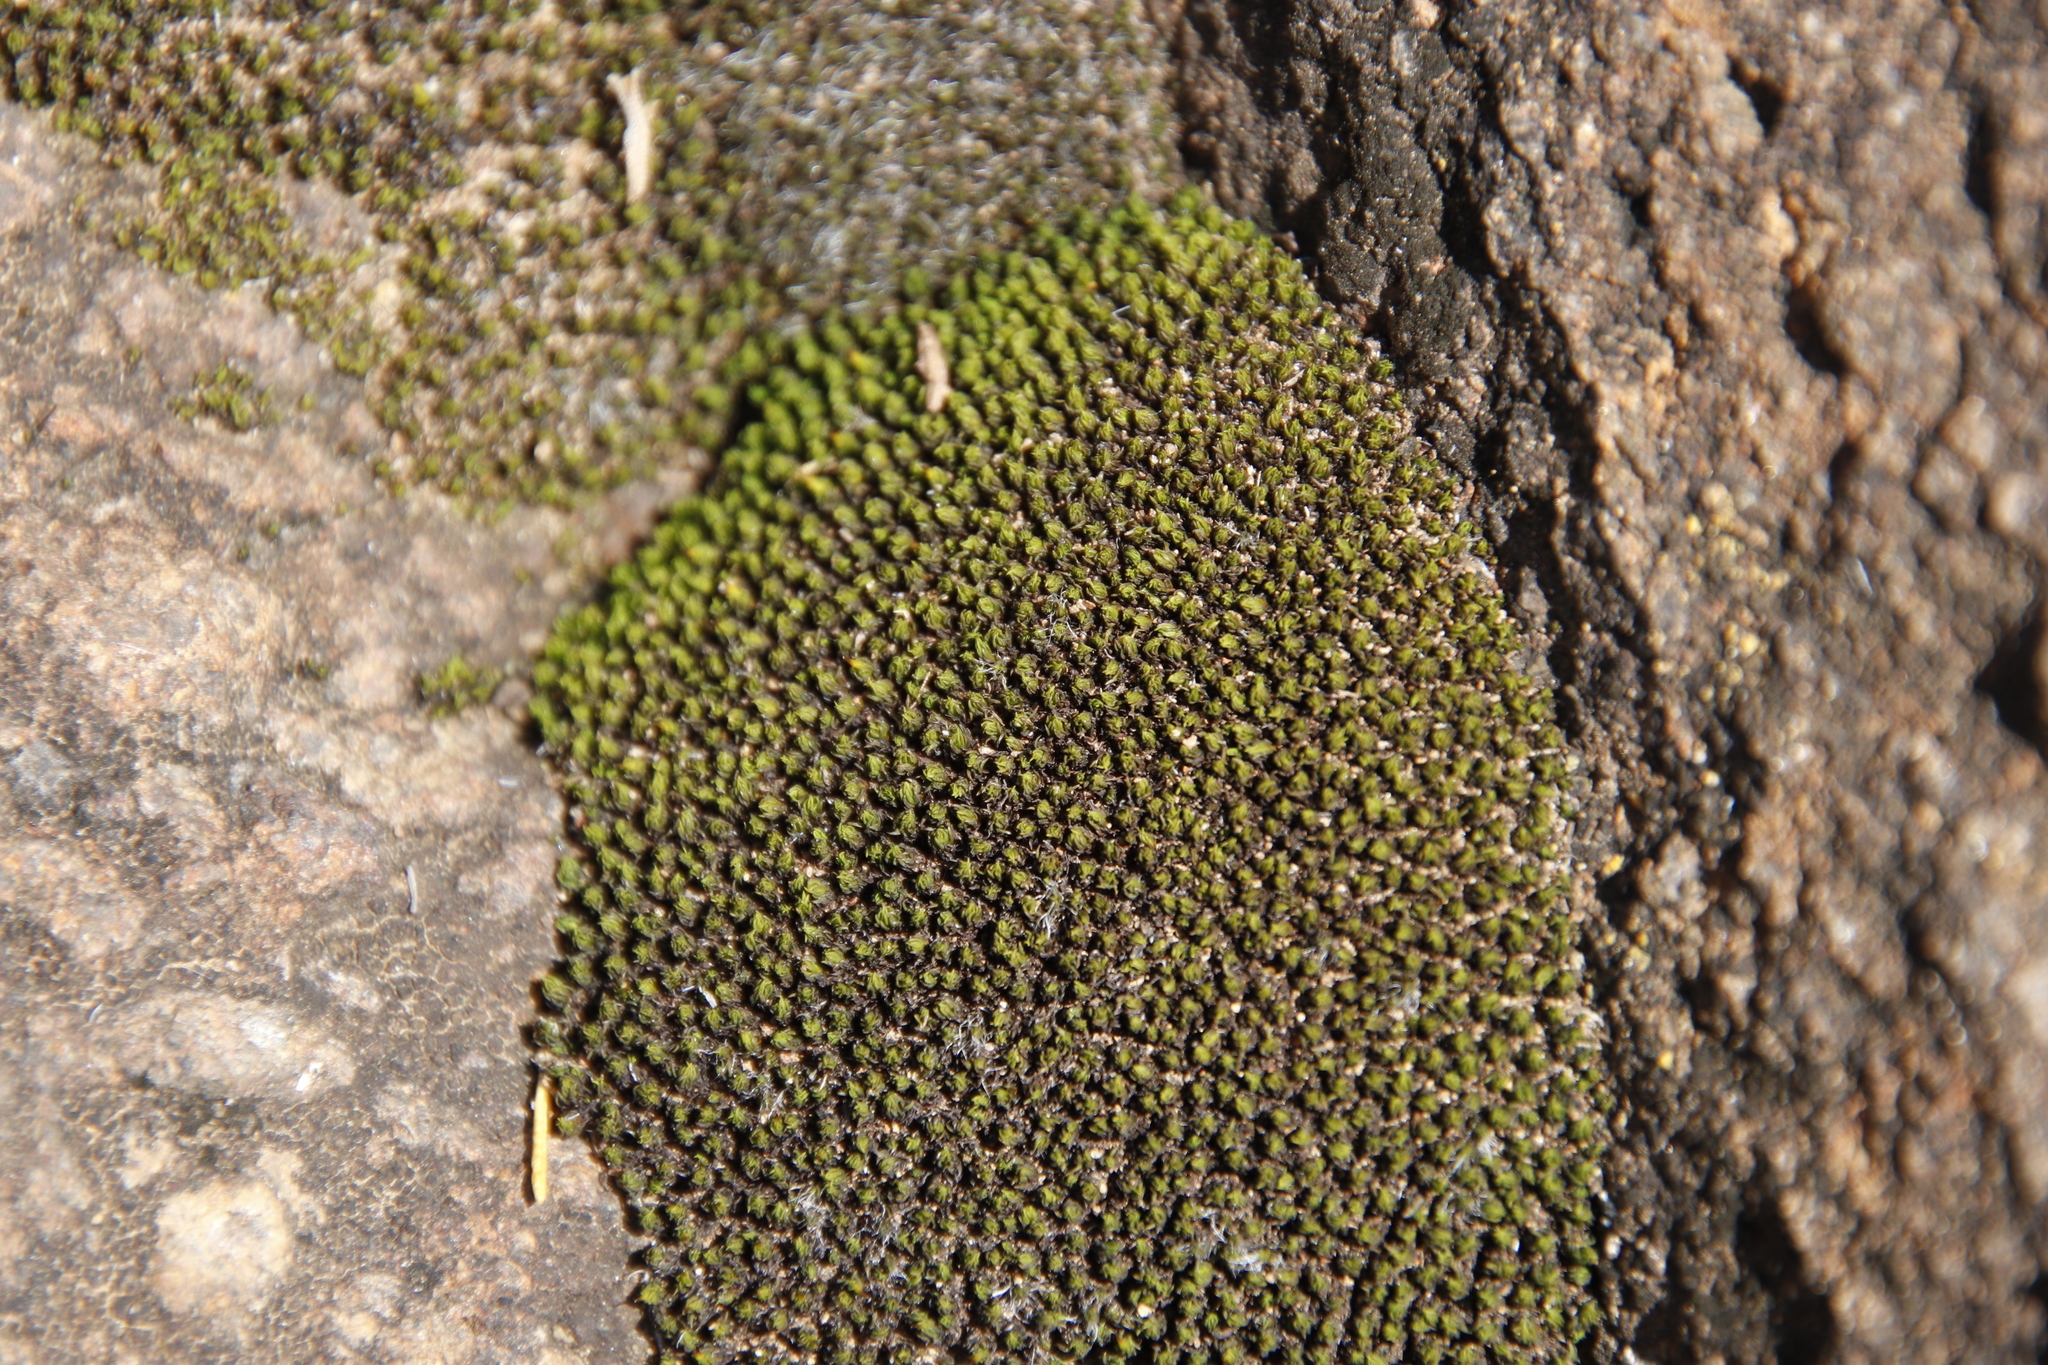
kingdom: Plantae
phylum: Bryophyta
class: Bryopsida
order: Grimmiales
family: Ptychomitriaceae
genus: Ptychomitrium
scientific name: Ptychomitrium cucullatifolium
